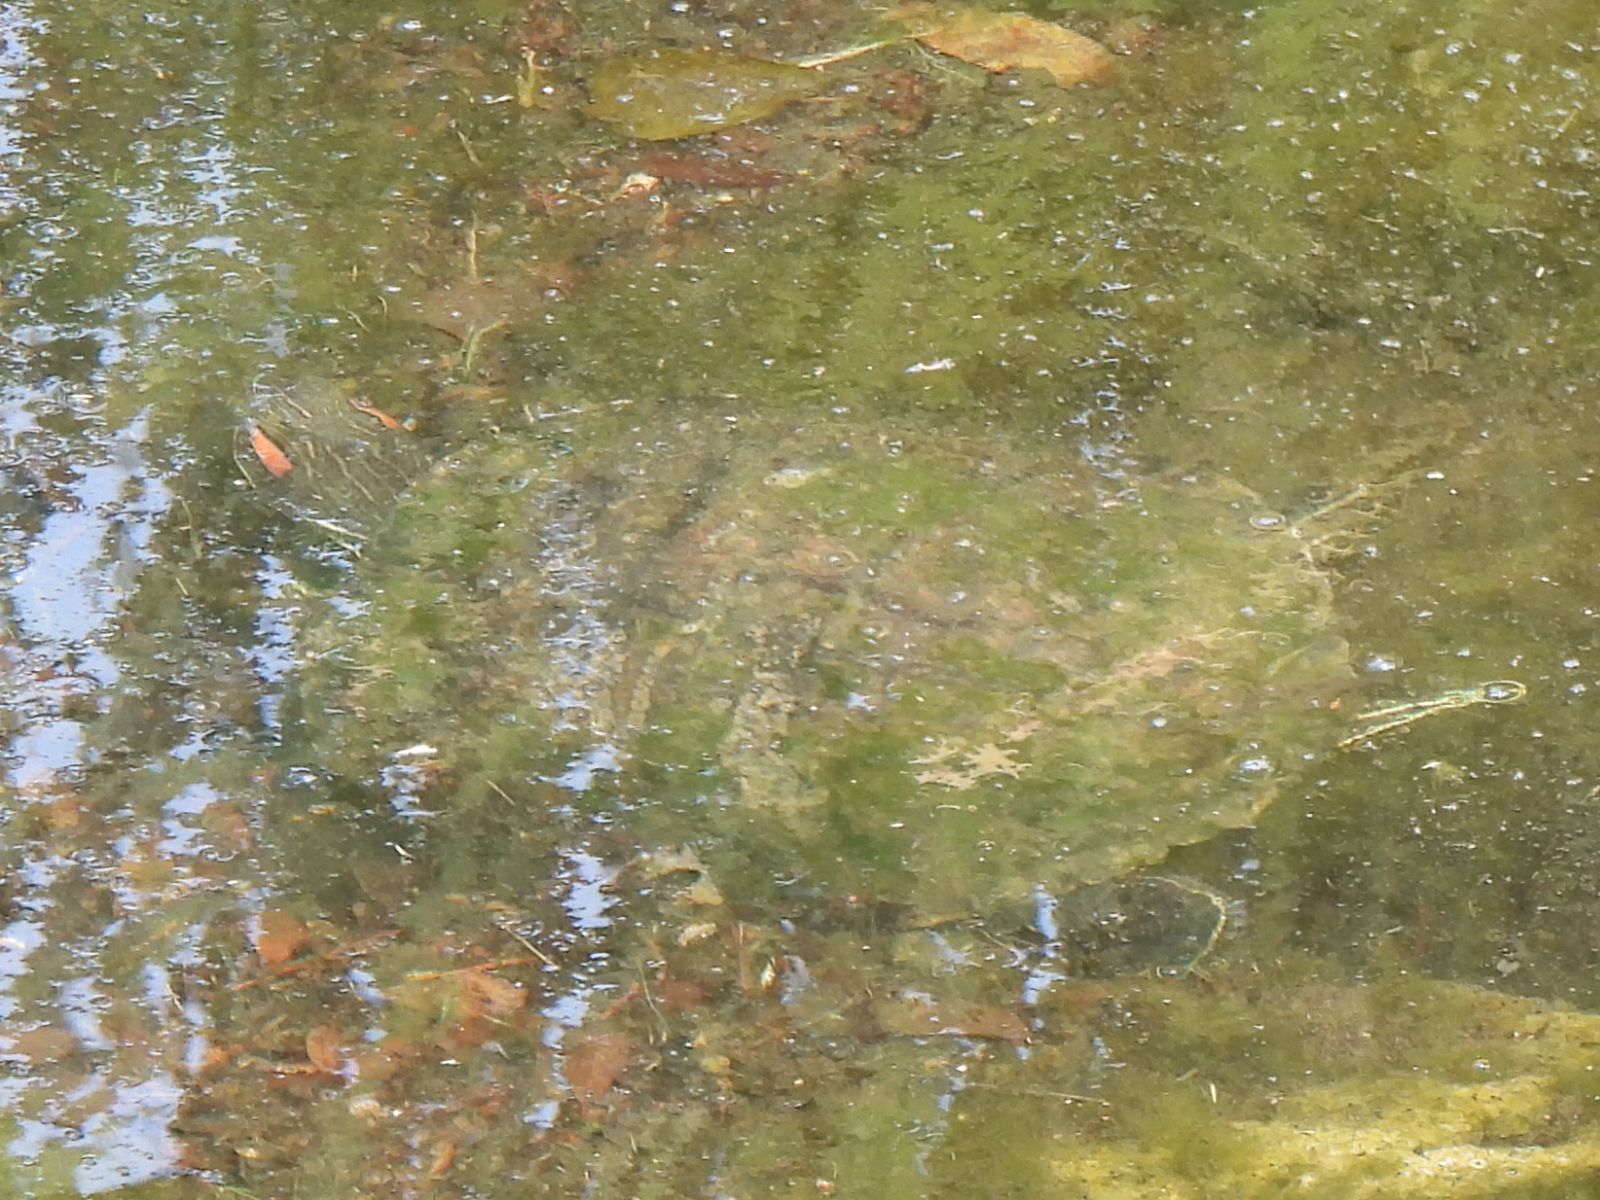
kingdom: Animalia
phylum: Chordata
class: Testudines
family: Emydidae
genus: Trachemys
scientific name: Trachemys scripta
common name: Slider
